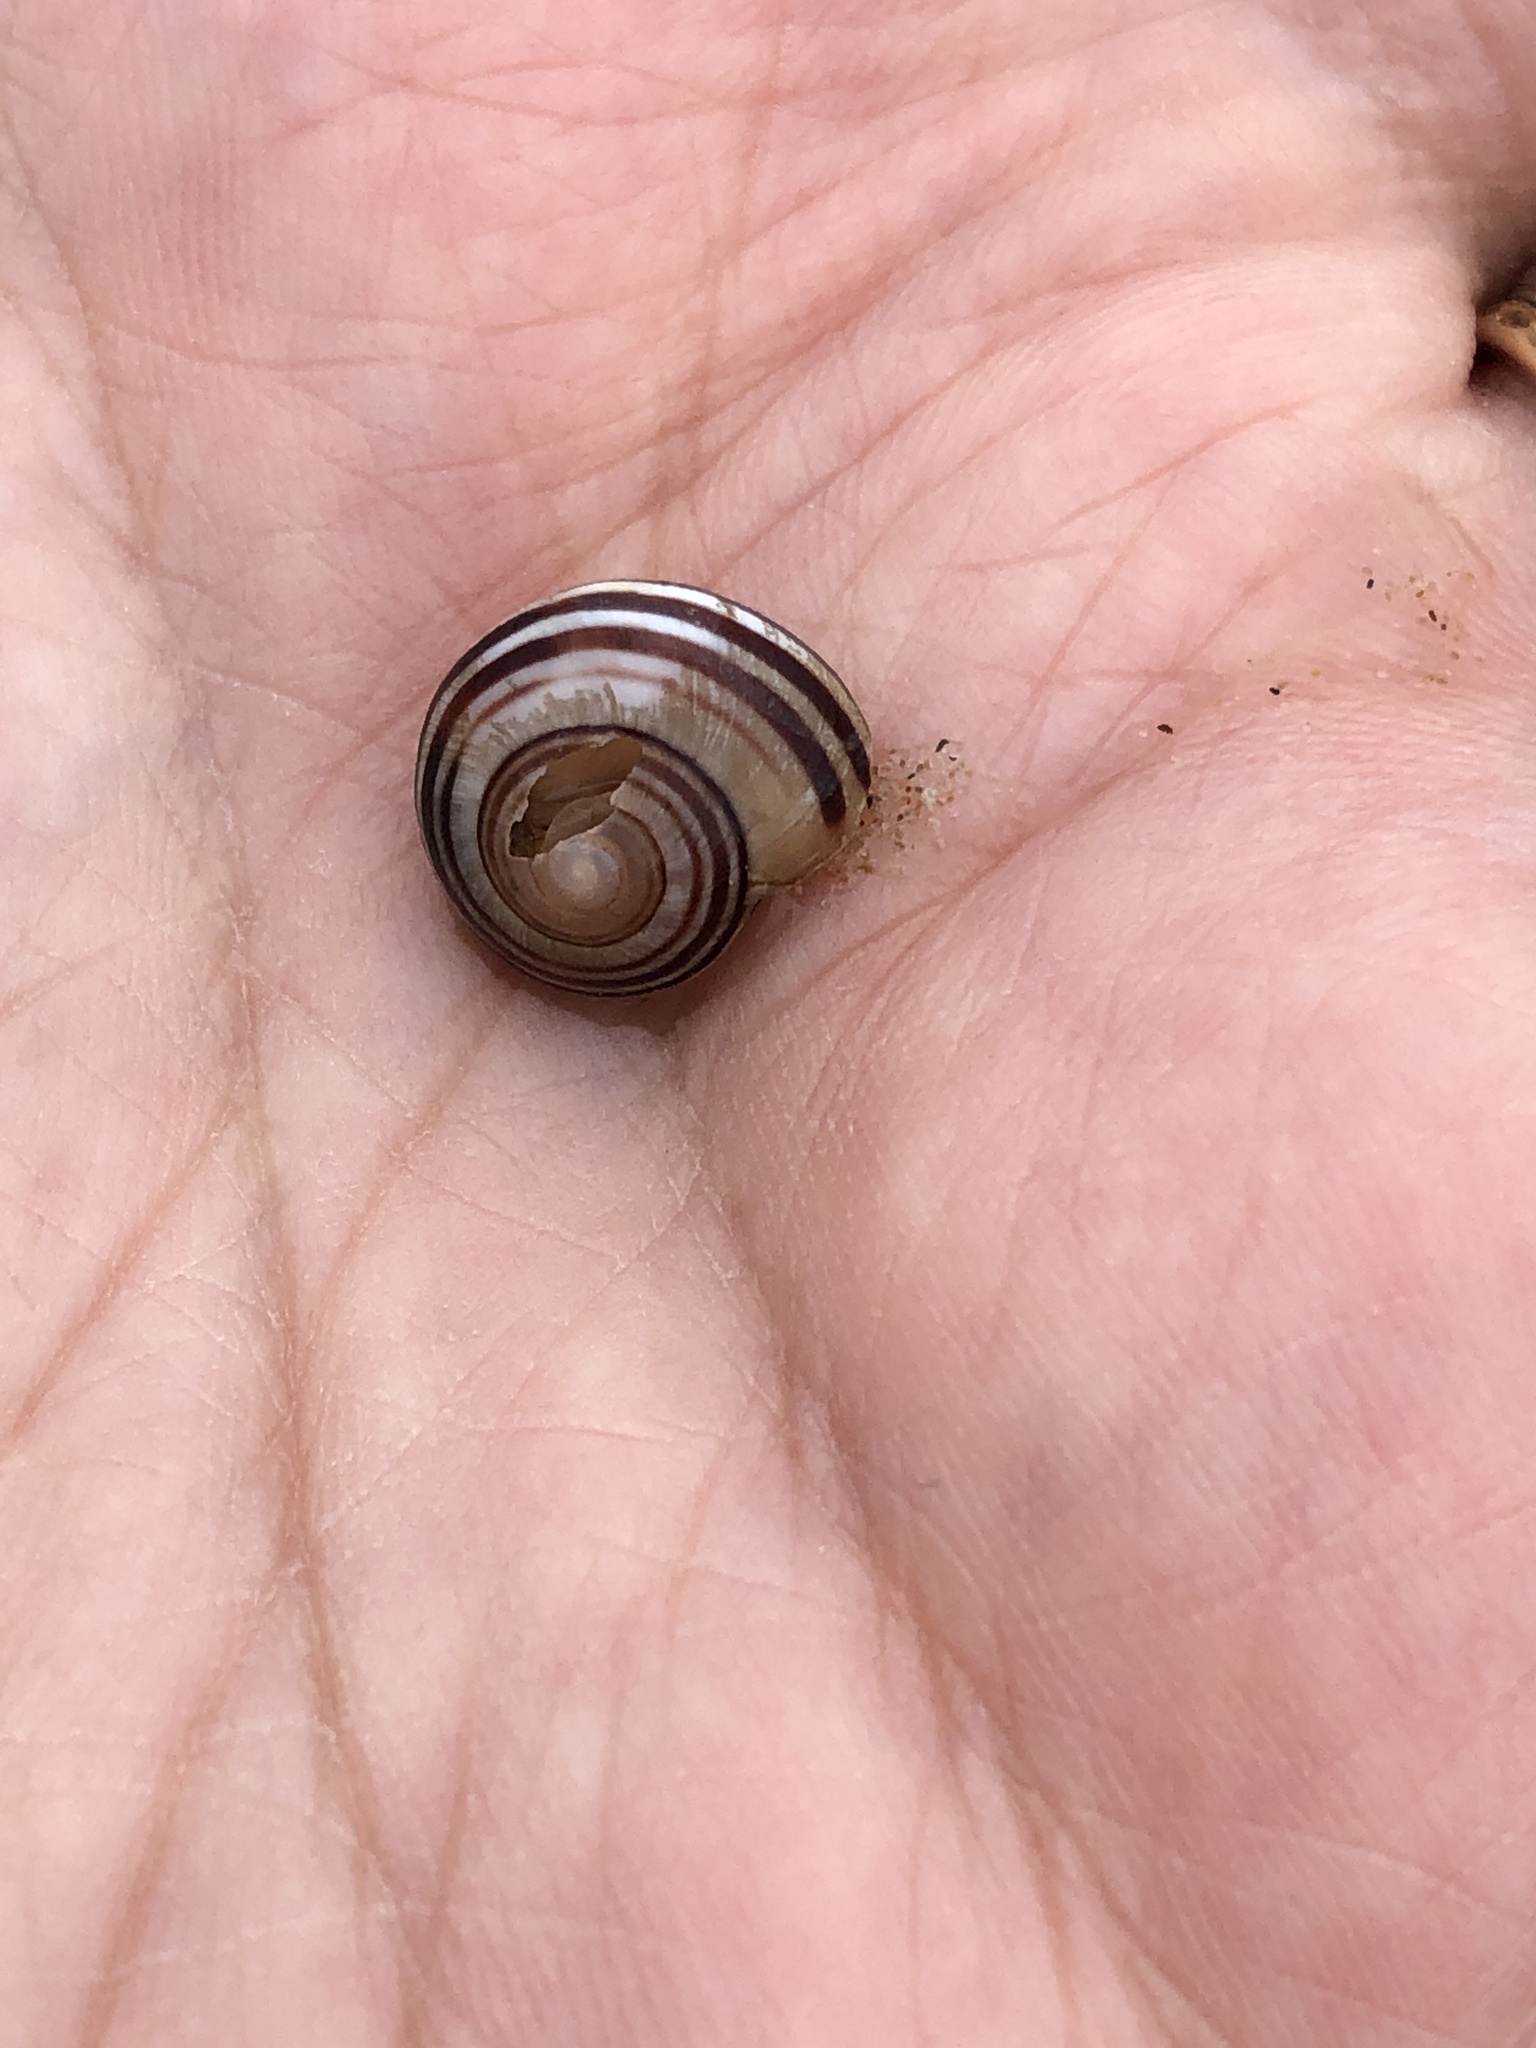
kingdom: Animalia
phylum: Mollusca
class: Gastropoda
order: Stylommatophora
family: Helicidae
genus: Cepaea
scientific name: Cepaea
